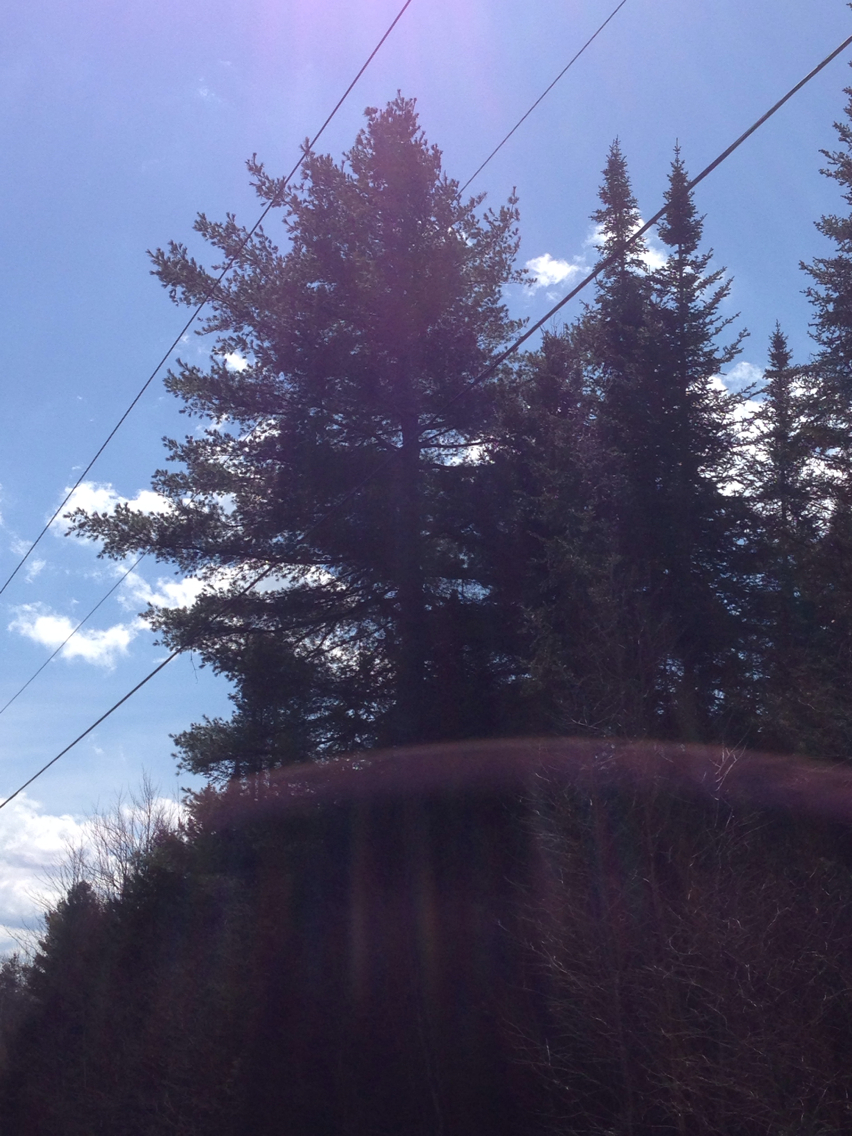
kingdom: Plantae
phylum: Tracheophyta
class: Pinopsida
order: Pinales
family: Pinaceae
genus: Pinus
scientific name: Pinus strobus
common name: Weymouth pine
